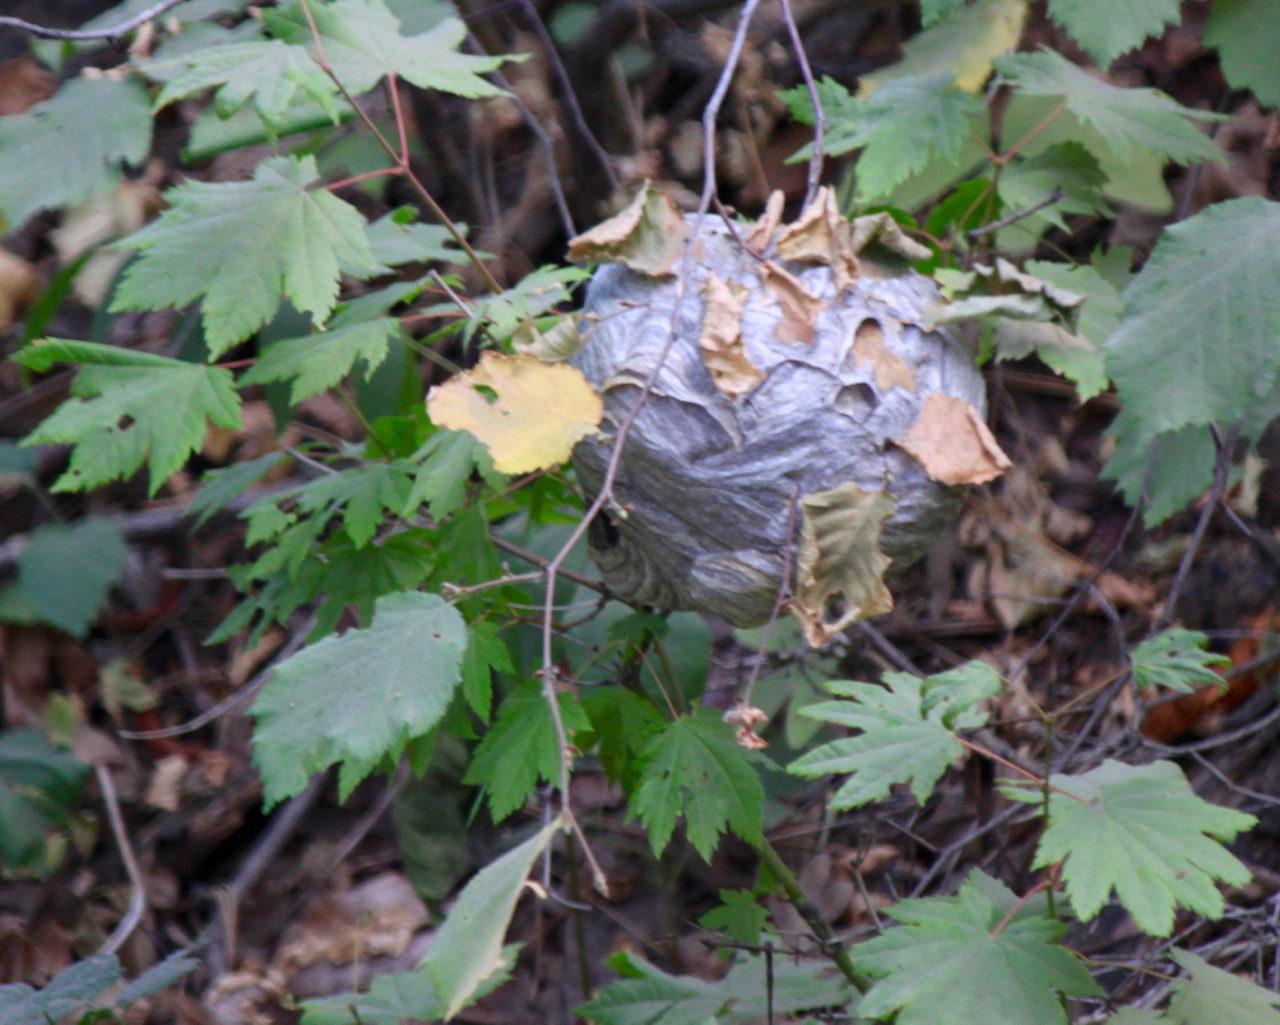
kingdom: Animalia
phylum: Arthropoda
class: Insecta
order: Hymenoptera
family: Vespidae
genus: Dolichovespula
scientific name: Dolichovespula
